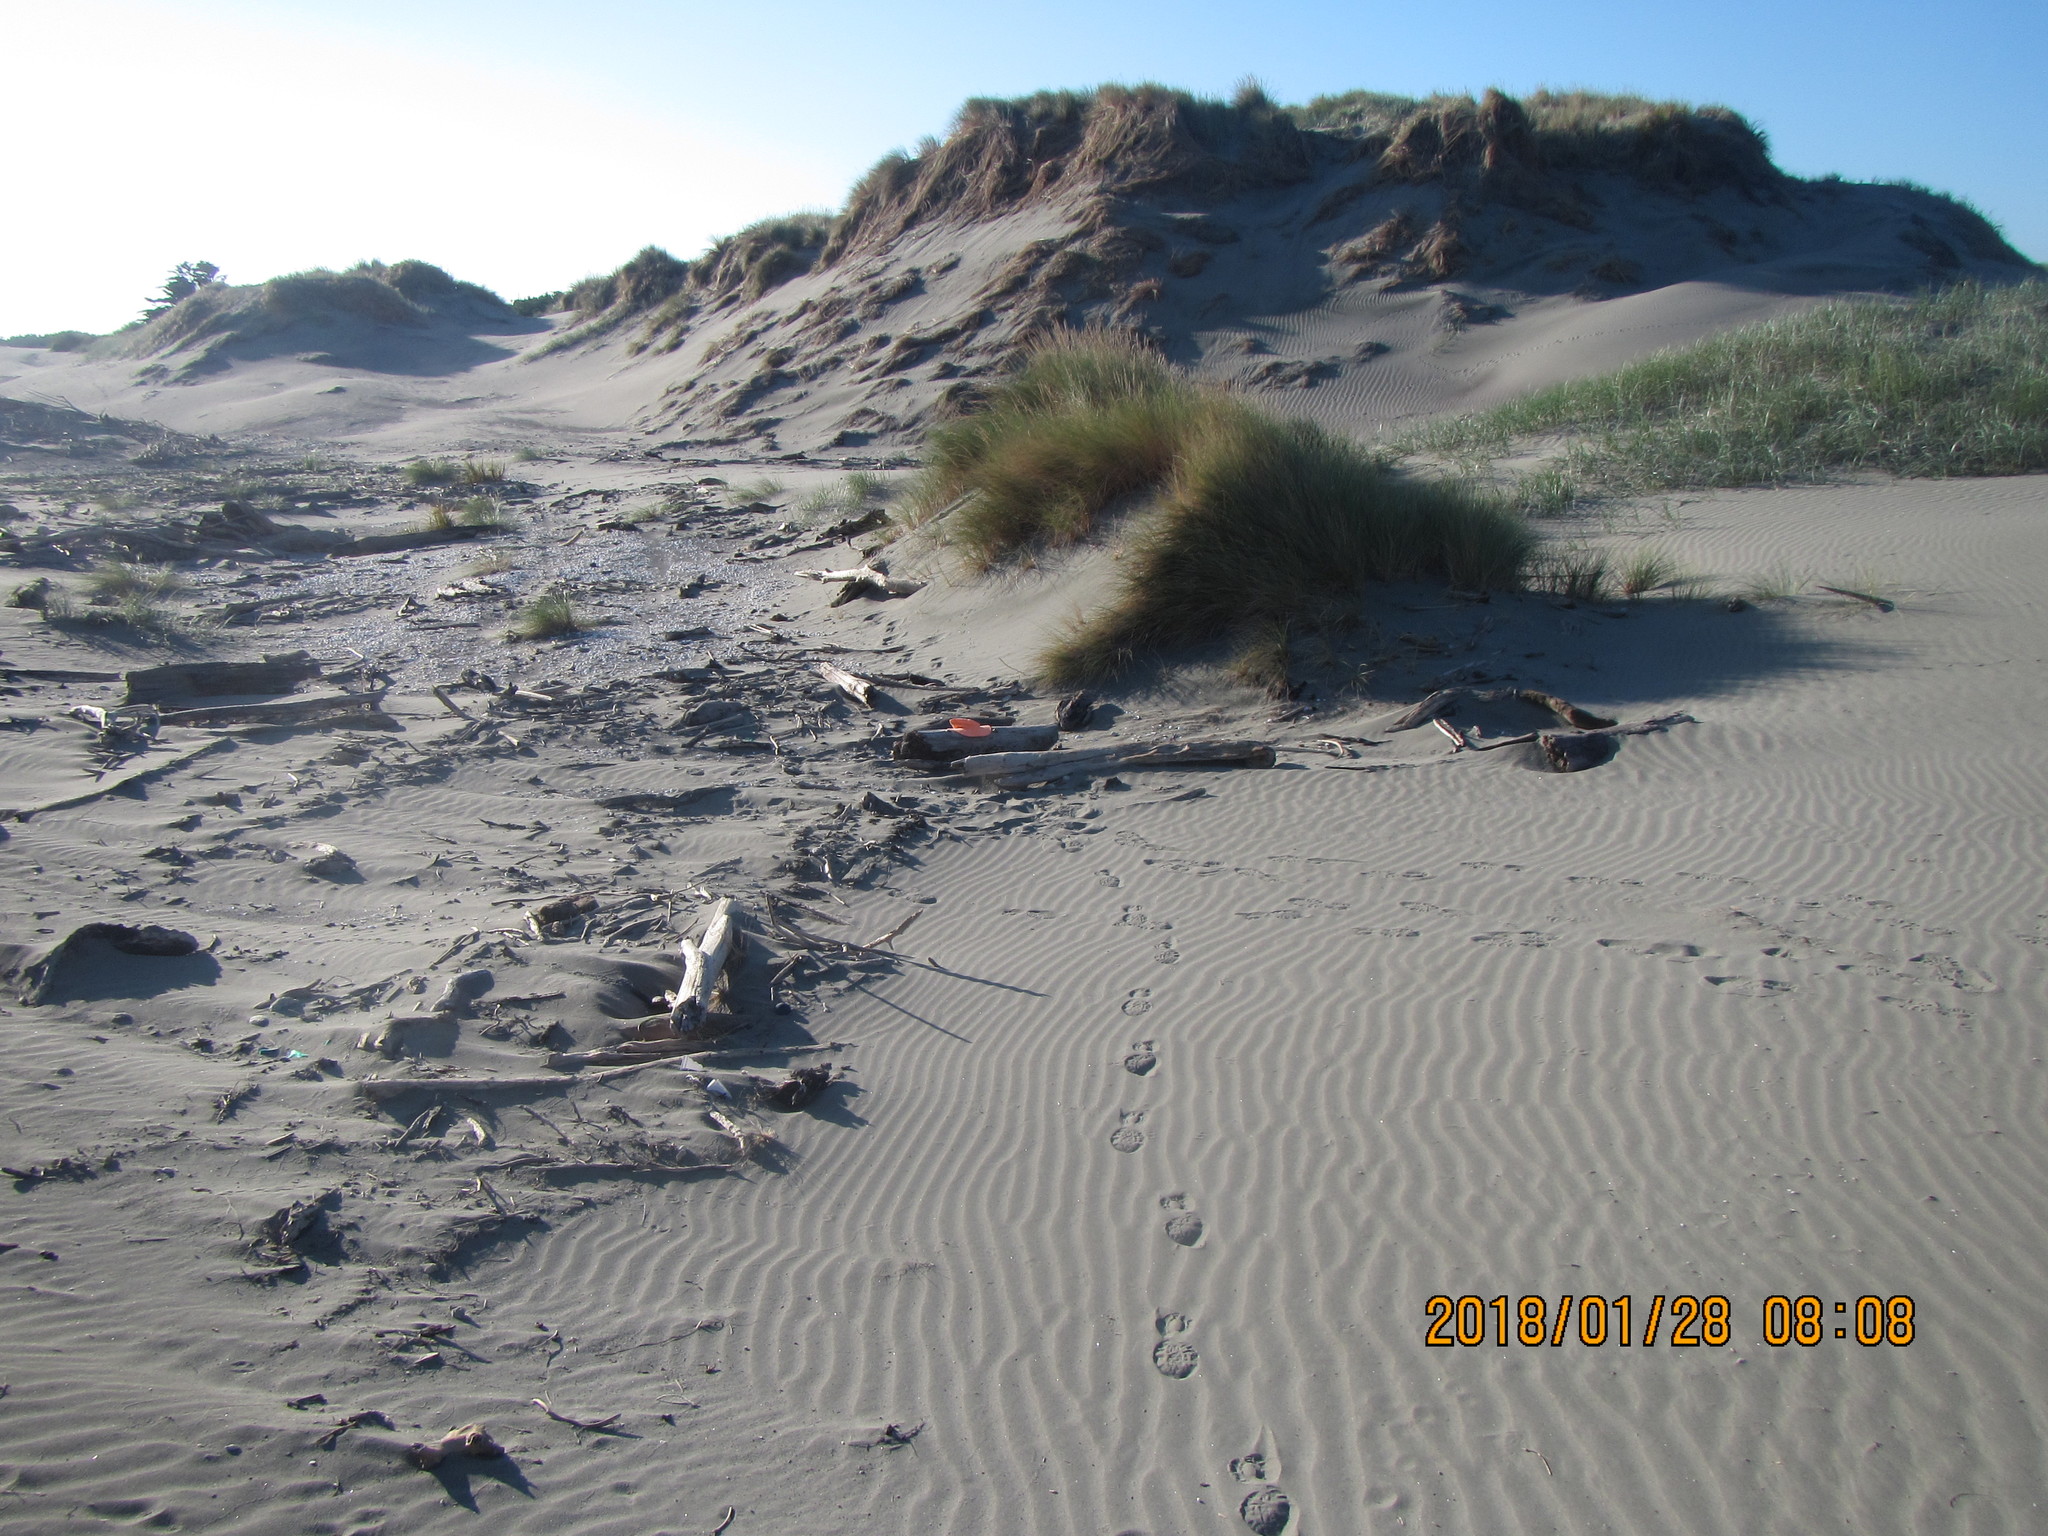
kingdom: Animalia
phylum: Arthropoda
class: Arachnida
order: Araneae
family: Theridiidae
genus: Steatoda
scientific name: Steatoda capensis
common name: Cobweb weaver
